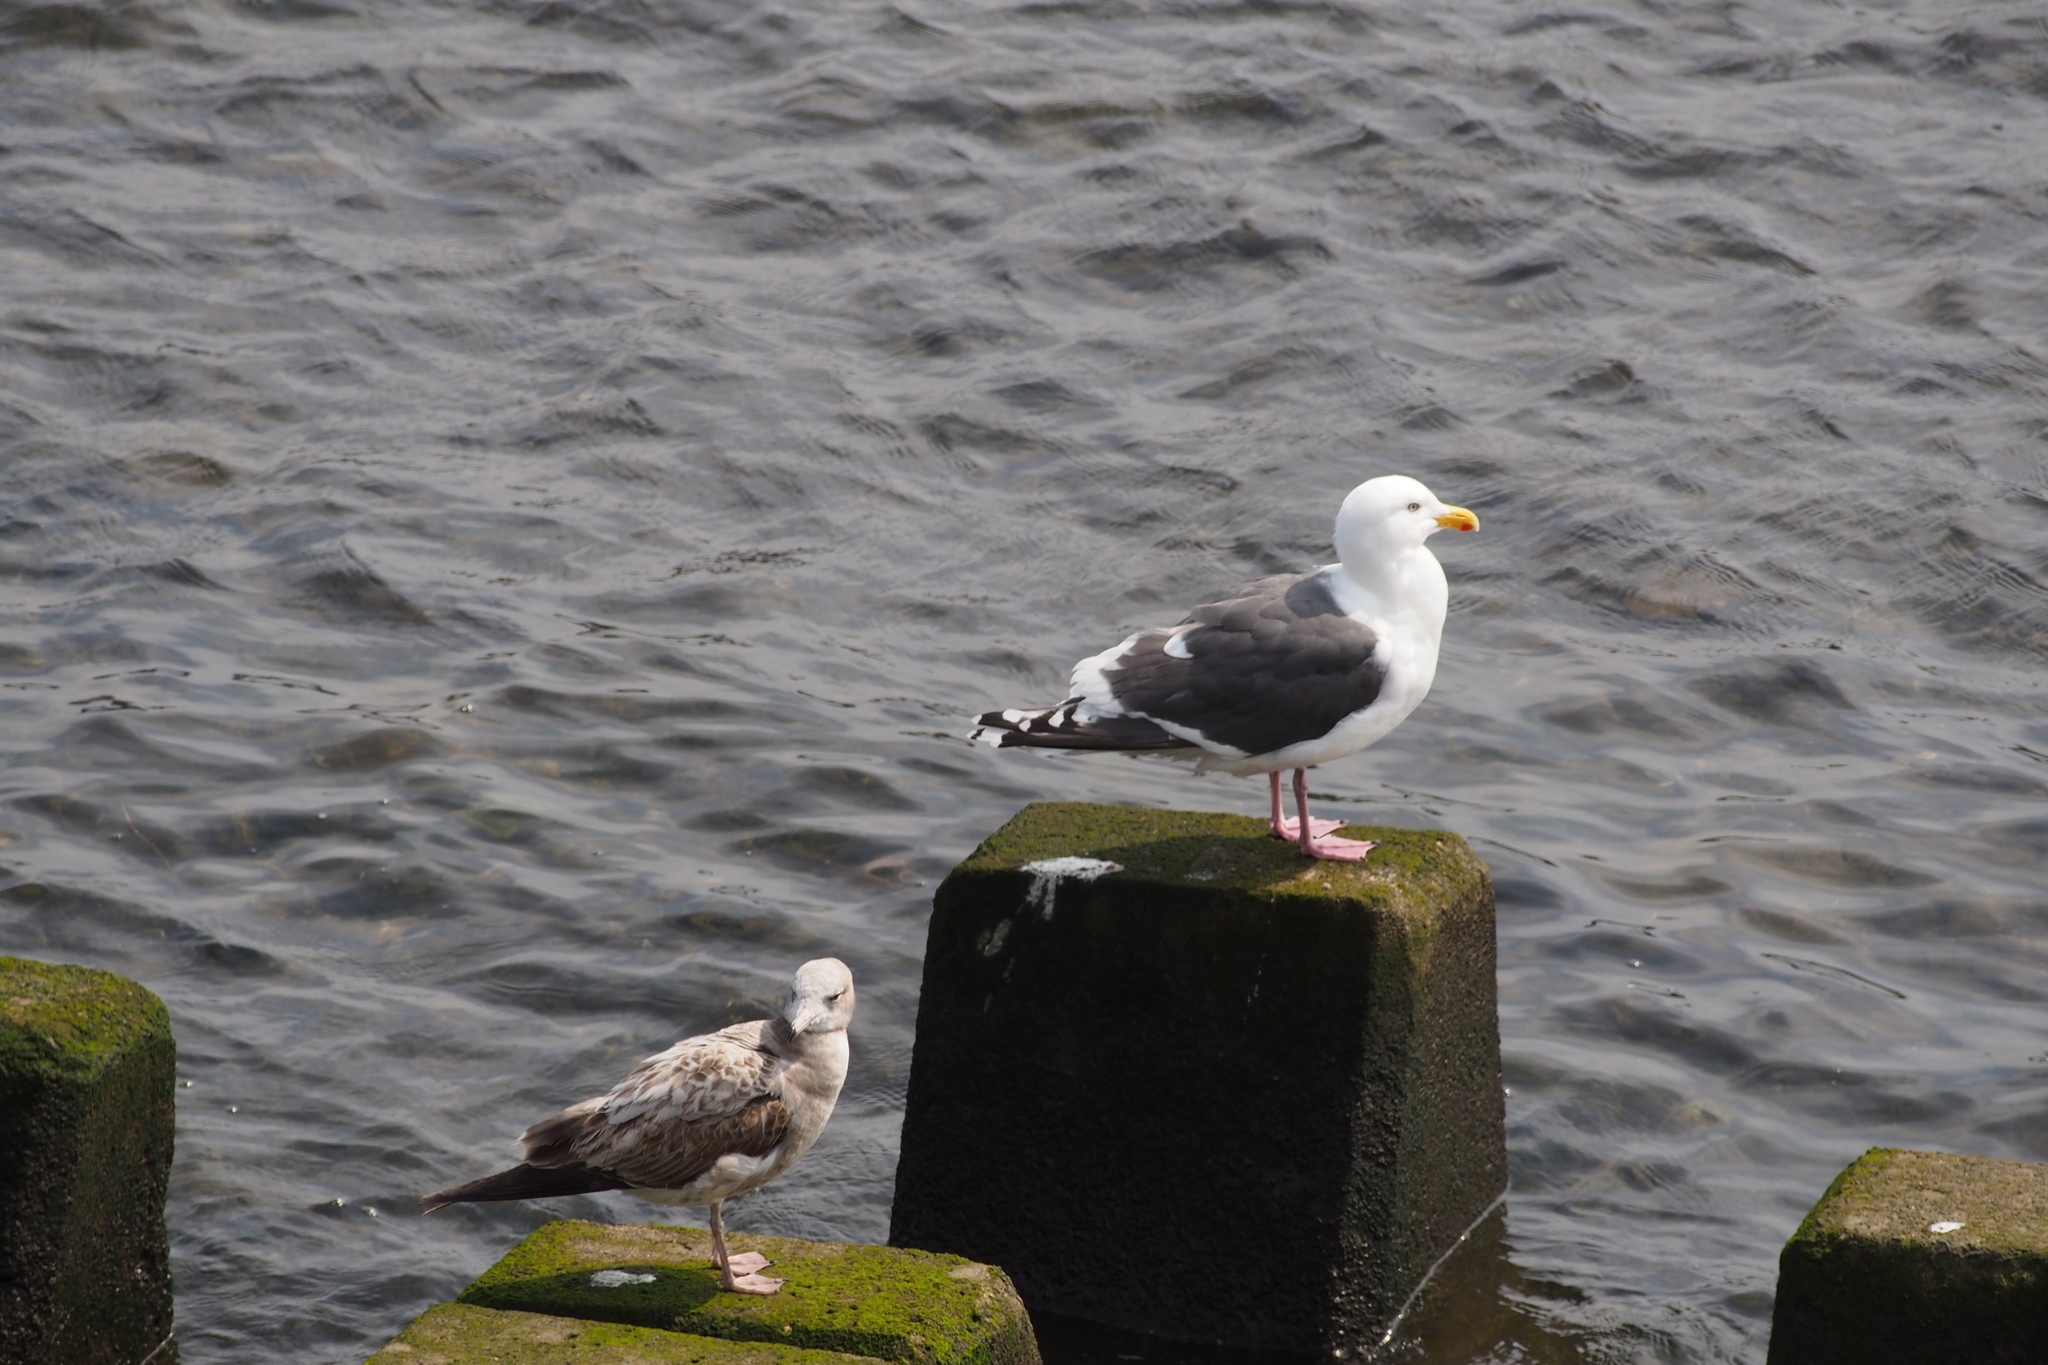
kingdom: Animalia
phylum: Chordata
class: Aves
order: Charadriiformes
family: Laridae
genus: Larus
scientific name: Larus schistisagus
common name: Slaty-backed gull
